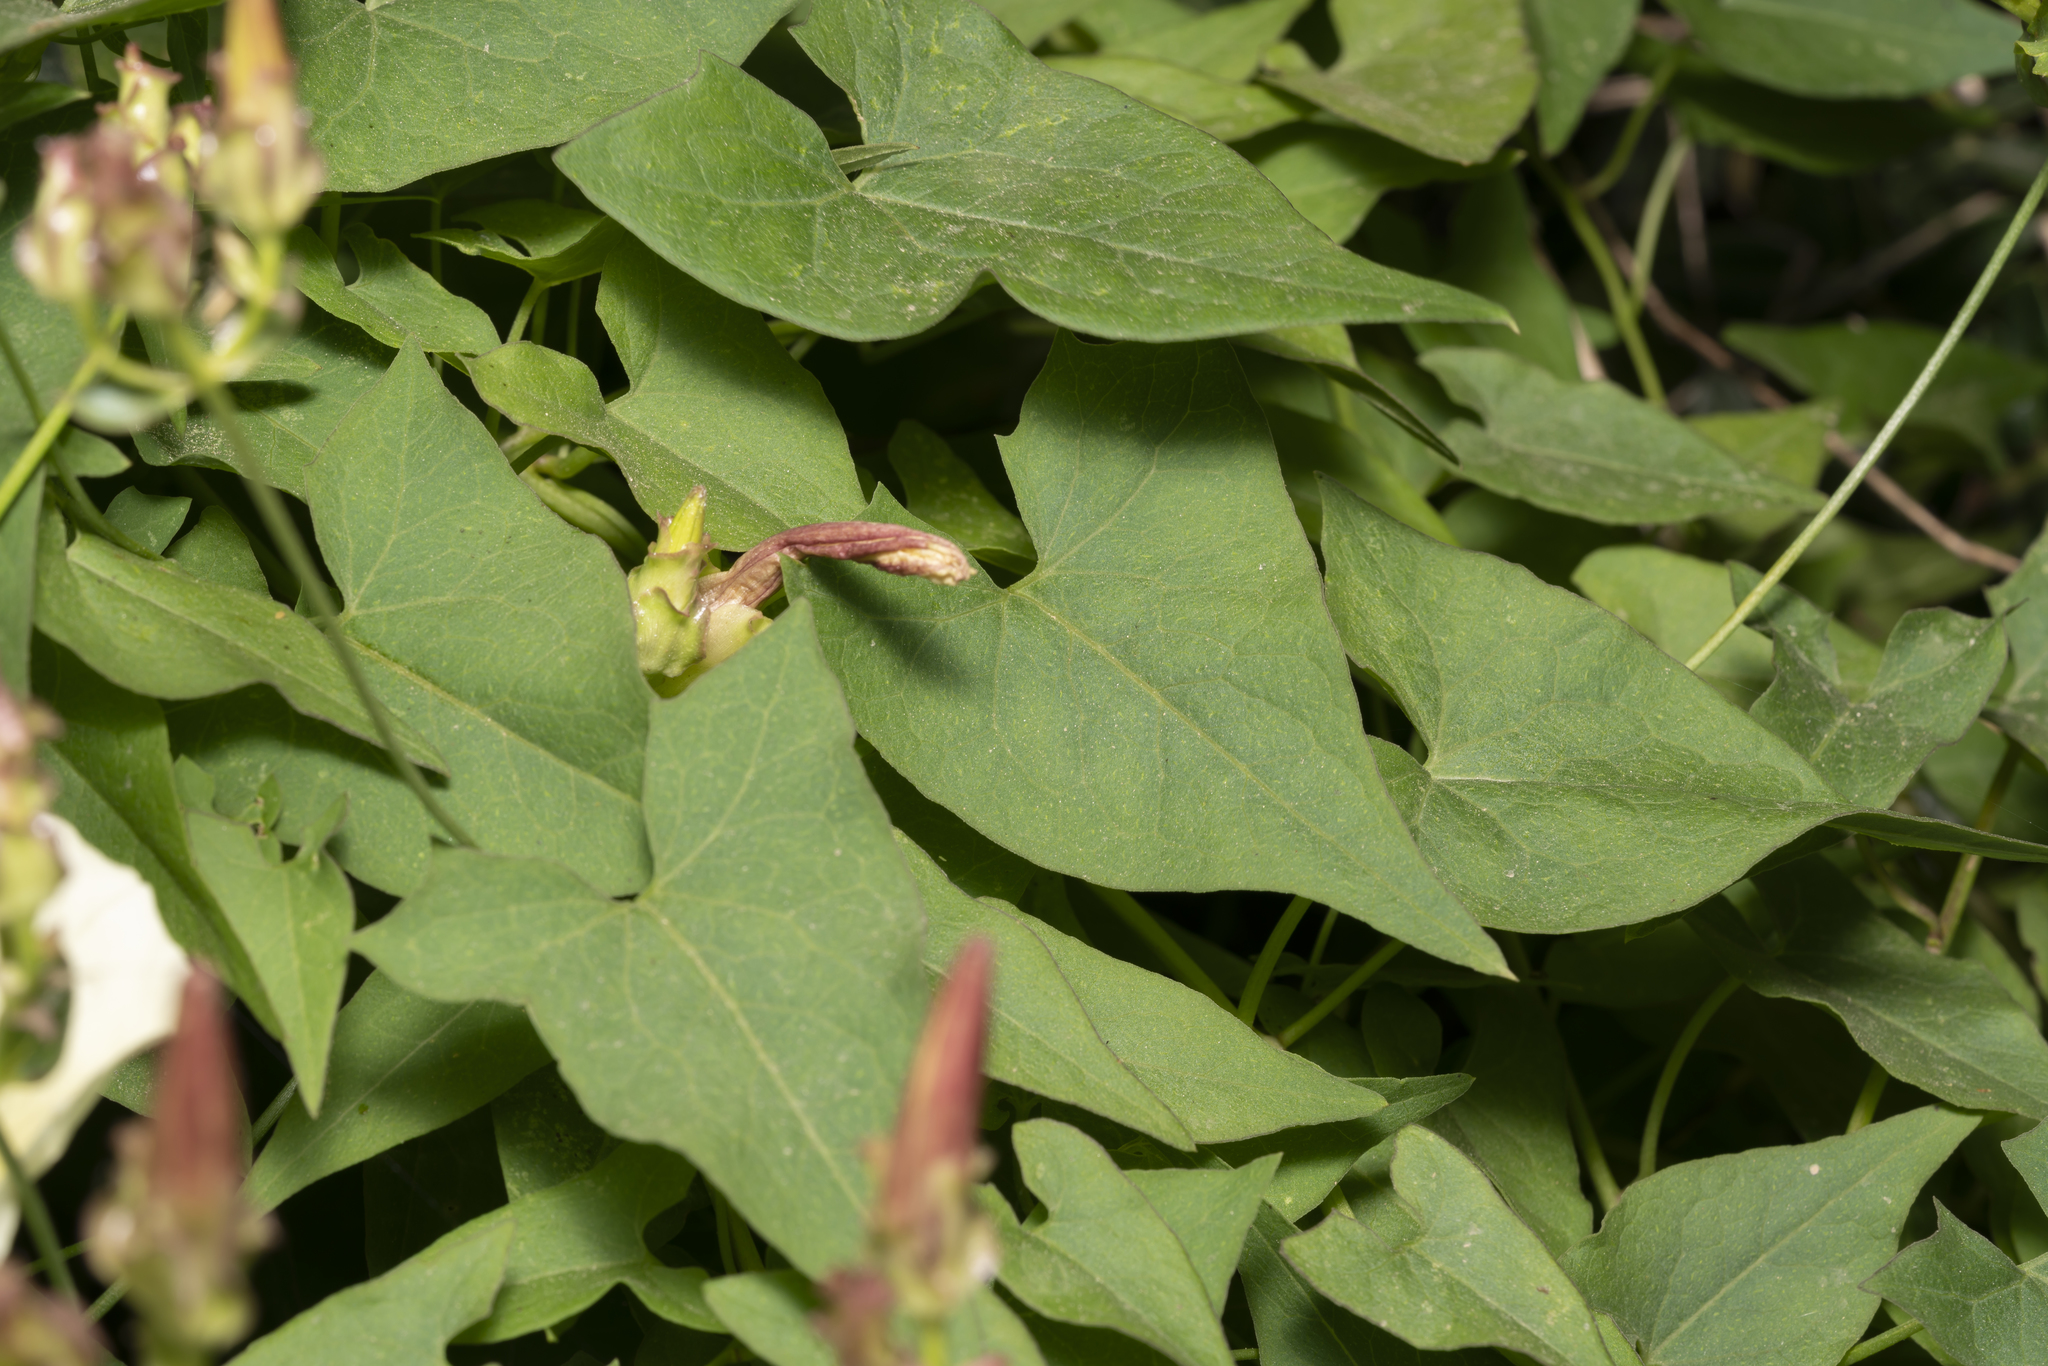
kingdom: Plantae
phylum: Tracheophyta
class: Magnoliopsida
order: Solanales
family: Convolvulaceae
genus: Convolvulus
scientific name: Convolvulus scammonia
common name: Scammony
